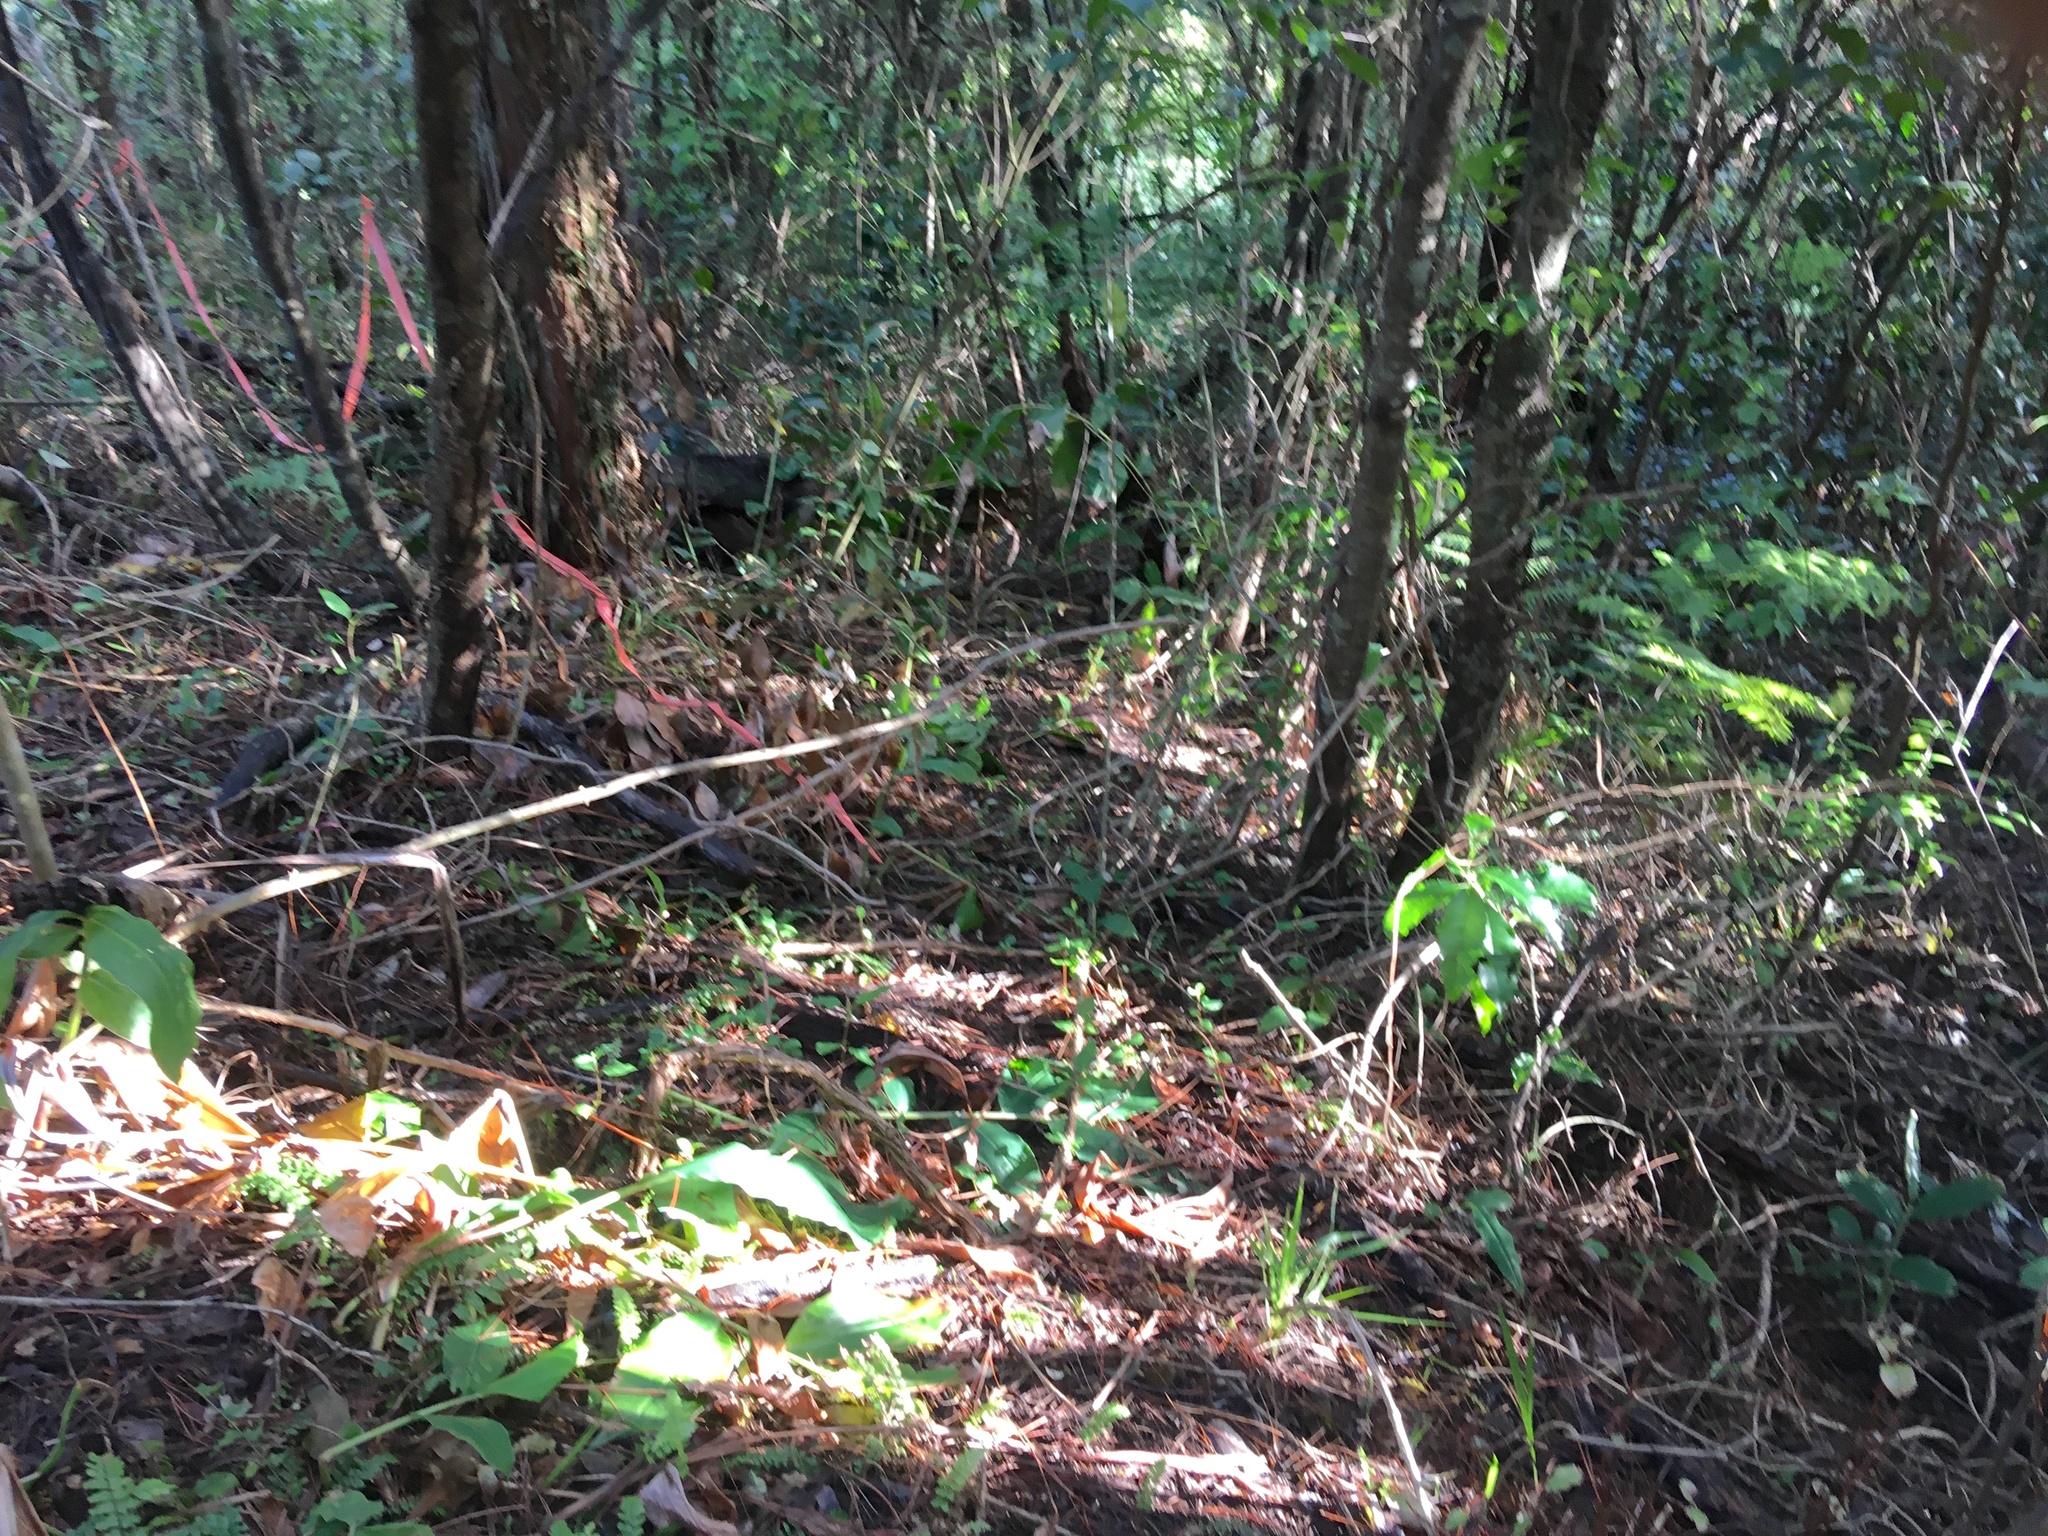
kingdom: Plantae
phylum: Tracheophyta
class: Polypodiopsida
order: Polypodiales
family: Blechnaceae
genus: Icarus
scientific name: Icarus filiformis
